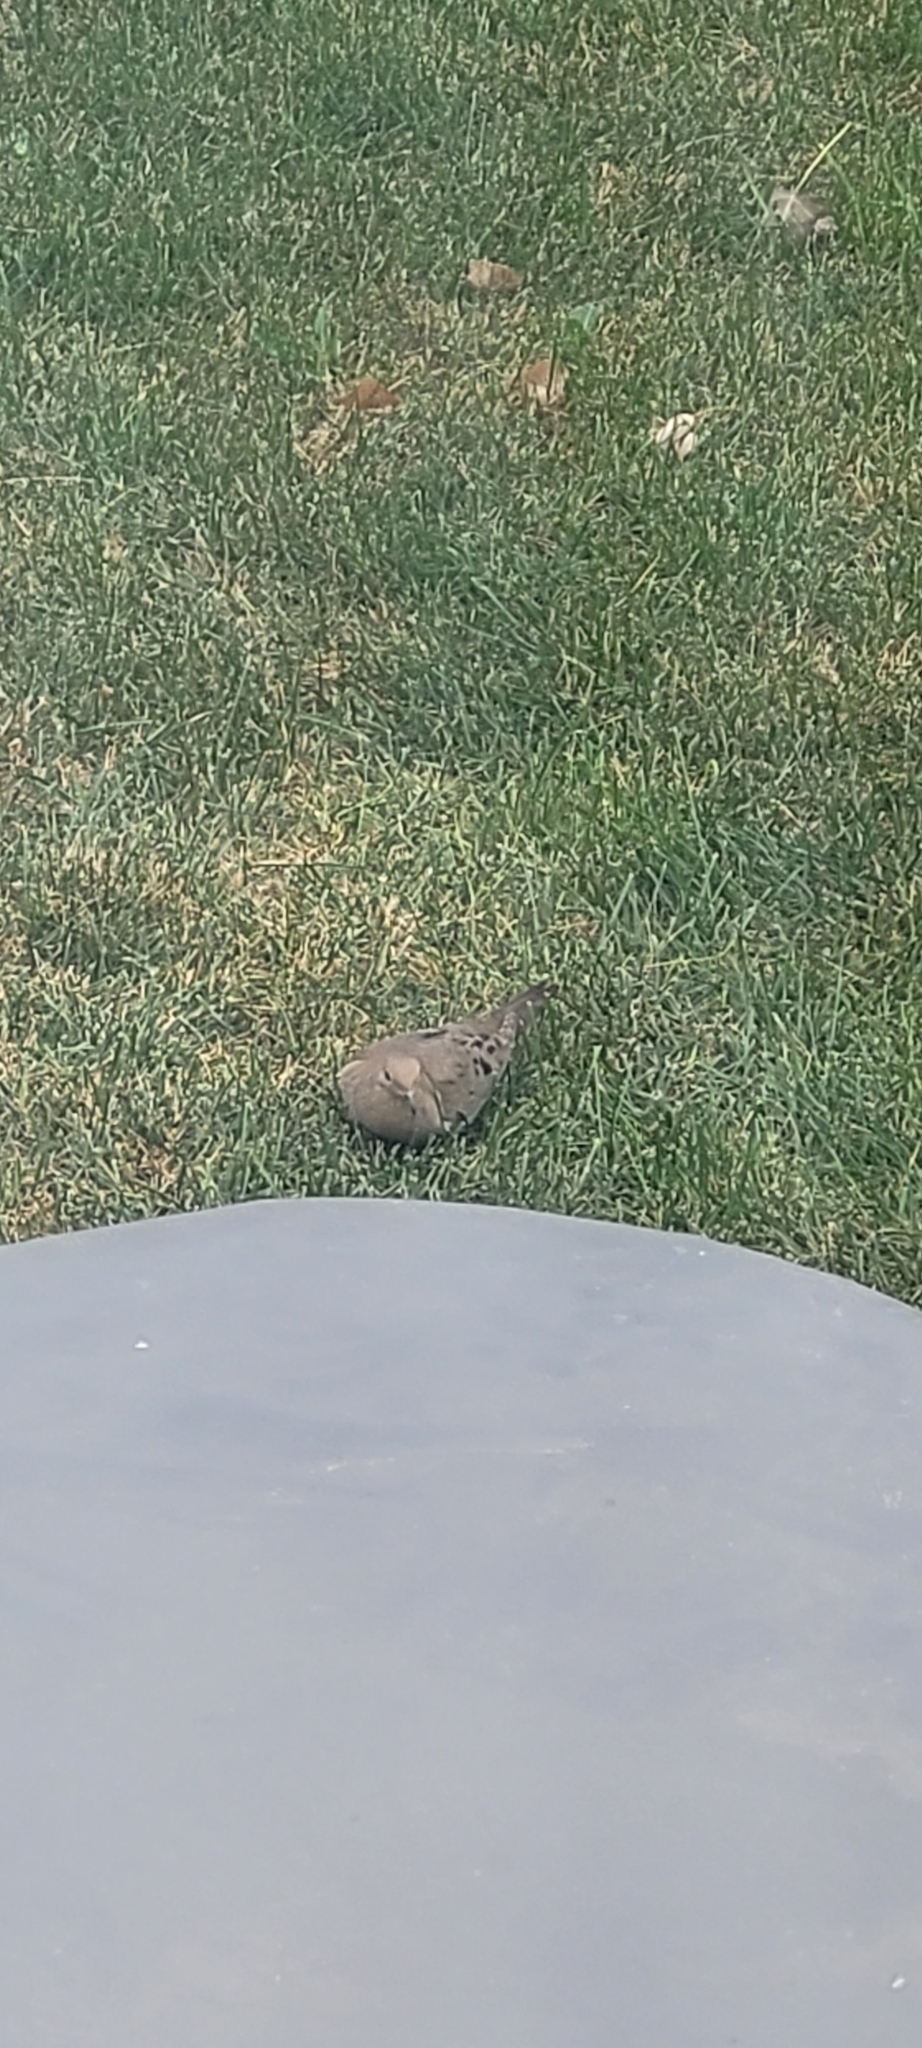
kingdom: Animalia
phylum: Chordata
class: Aves
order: Columbiformes
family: Columbidae
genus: Zenaida
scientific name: Zenaida macroura
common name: Mourning dove
